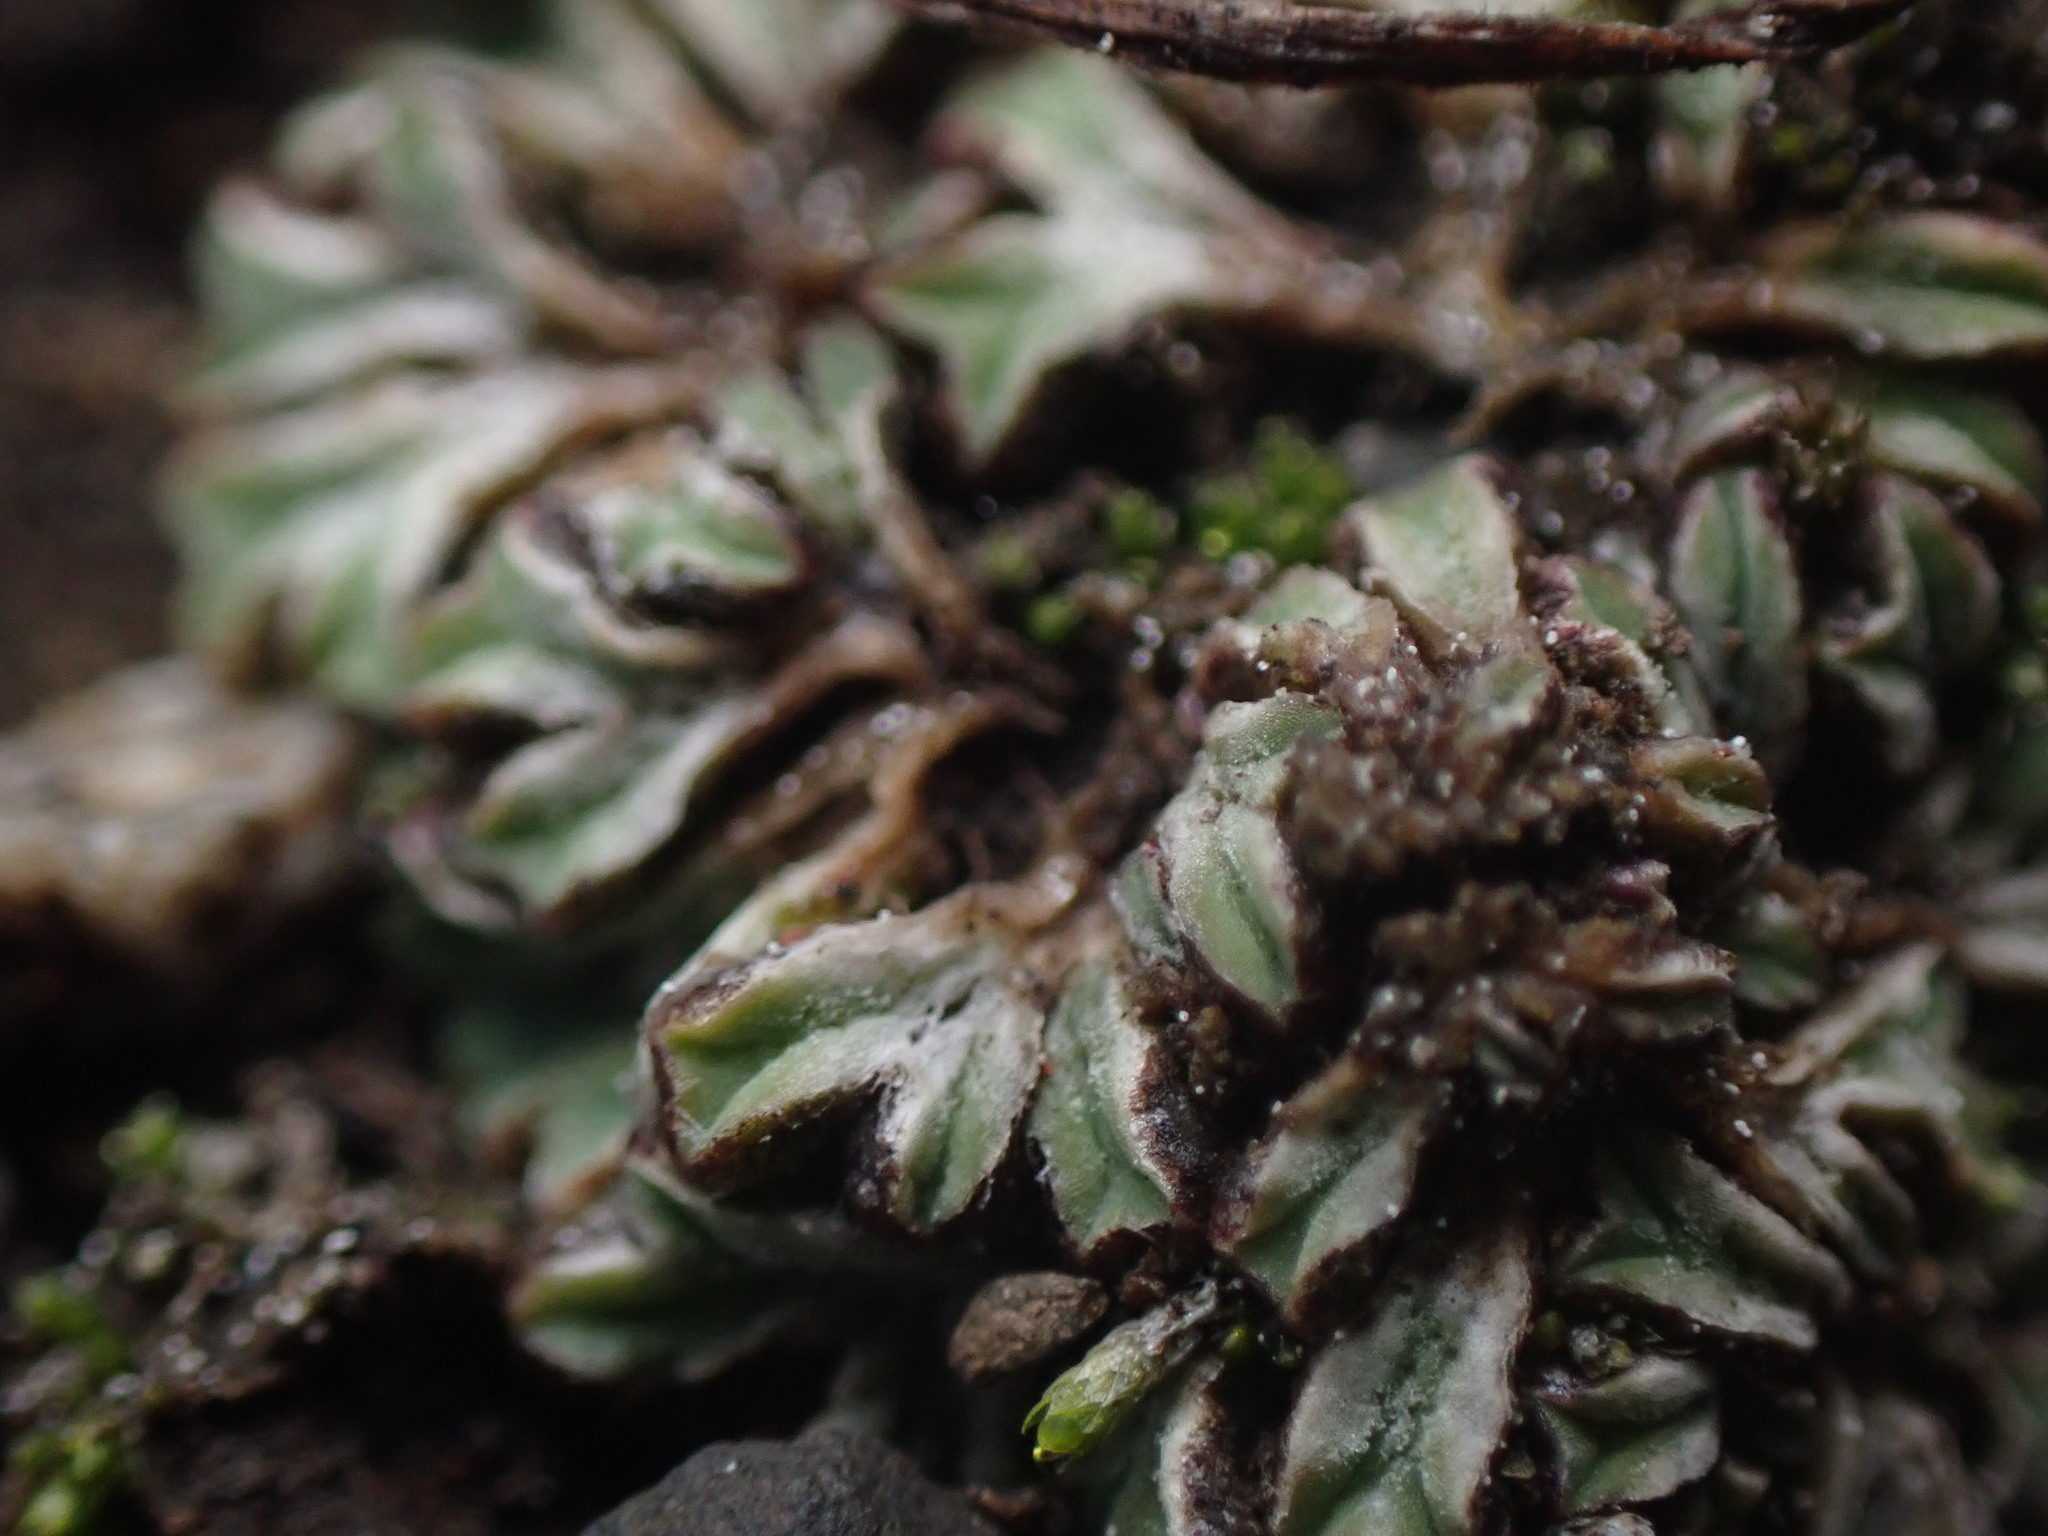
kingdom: Plantae
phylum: Marchantiophyta
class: Marchantiopsida
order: Marchantiales
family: Ricciaceae
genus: Riccia
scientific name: Riccia sorocarpa
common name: Common crystalwort
